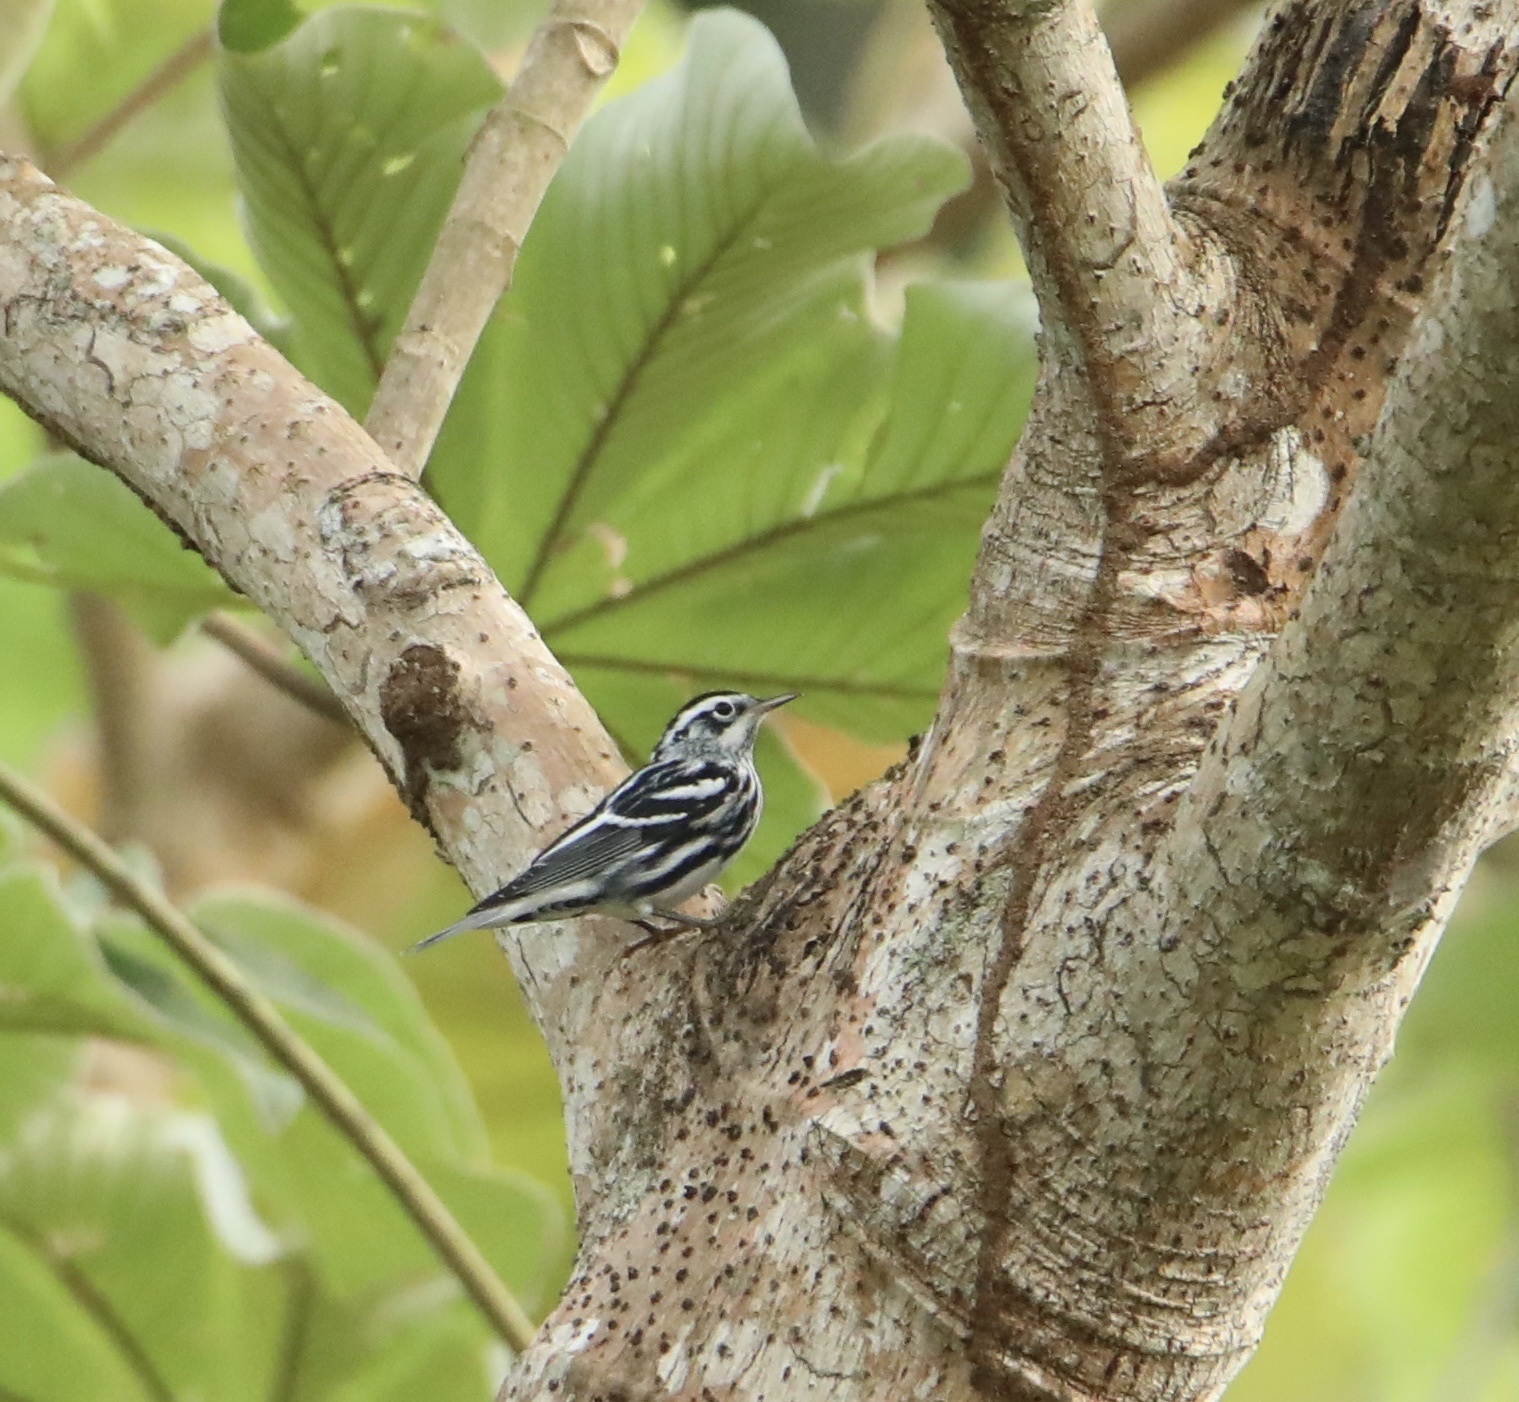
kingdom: Animalia
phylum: Chordata
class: Aves
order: Passeriformes
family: Parulidae
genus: Mniotilta
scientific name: Mniotilta varia
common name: Black-and-white warbler
